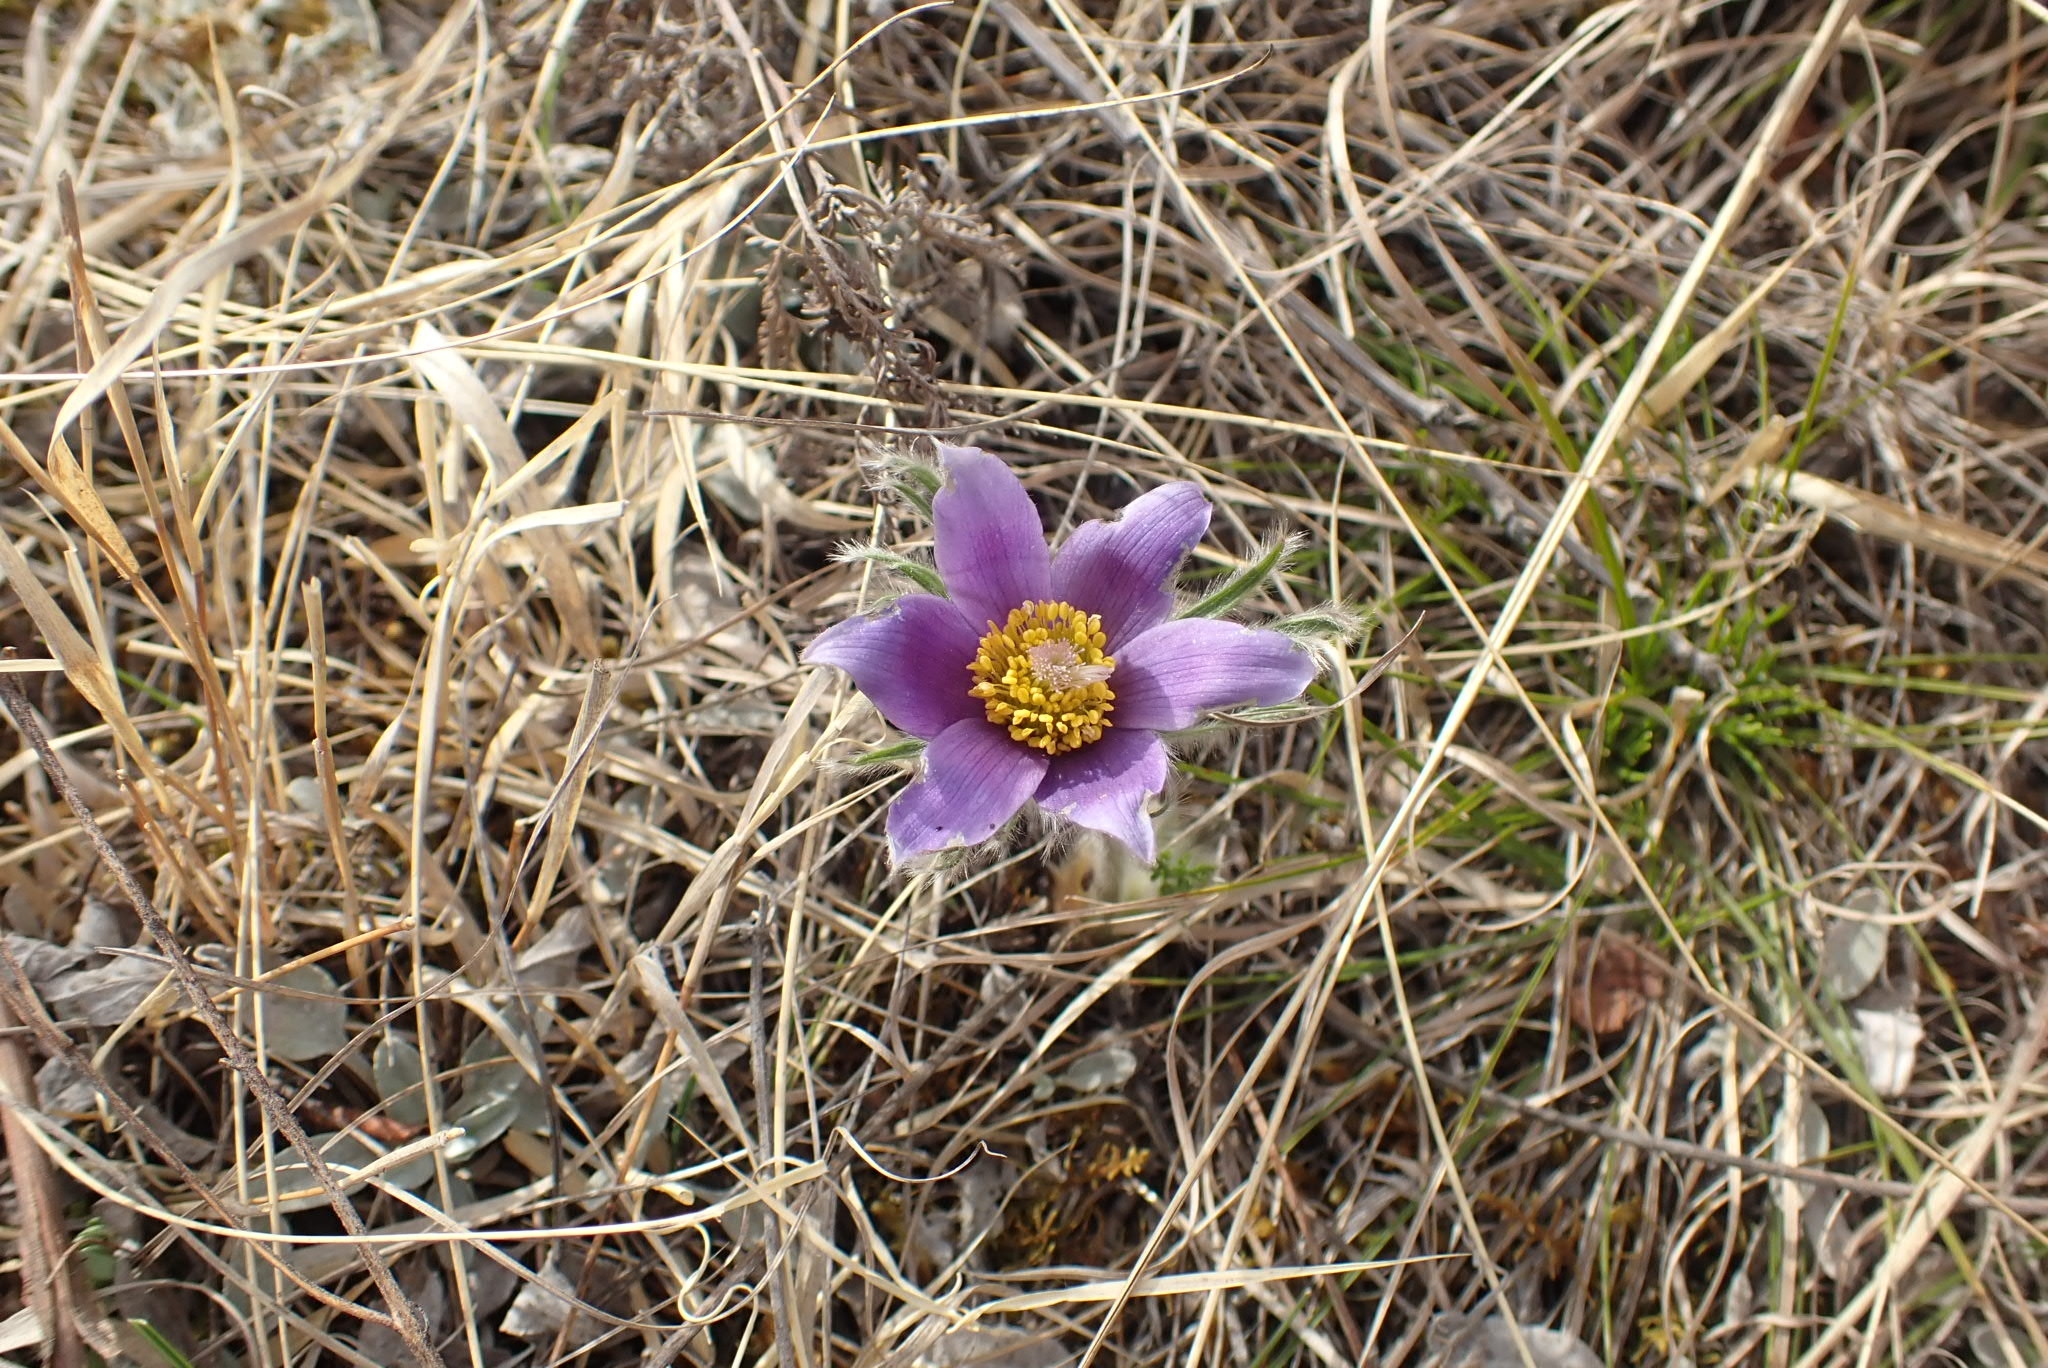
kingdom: Plantae
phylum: Tracheophyta
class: Magnoliopsida
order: Ranunculales
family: Ranunculaceae
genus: Pulsatilla
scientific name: Pulsatilla patens
